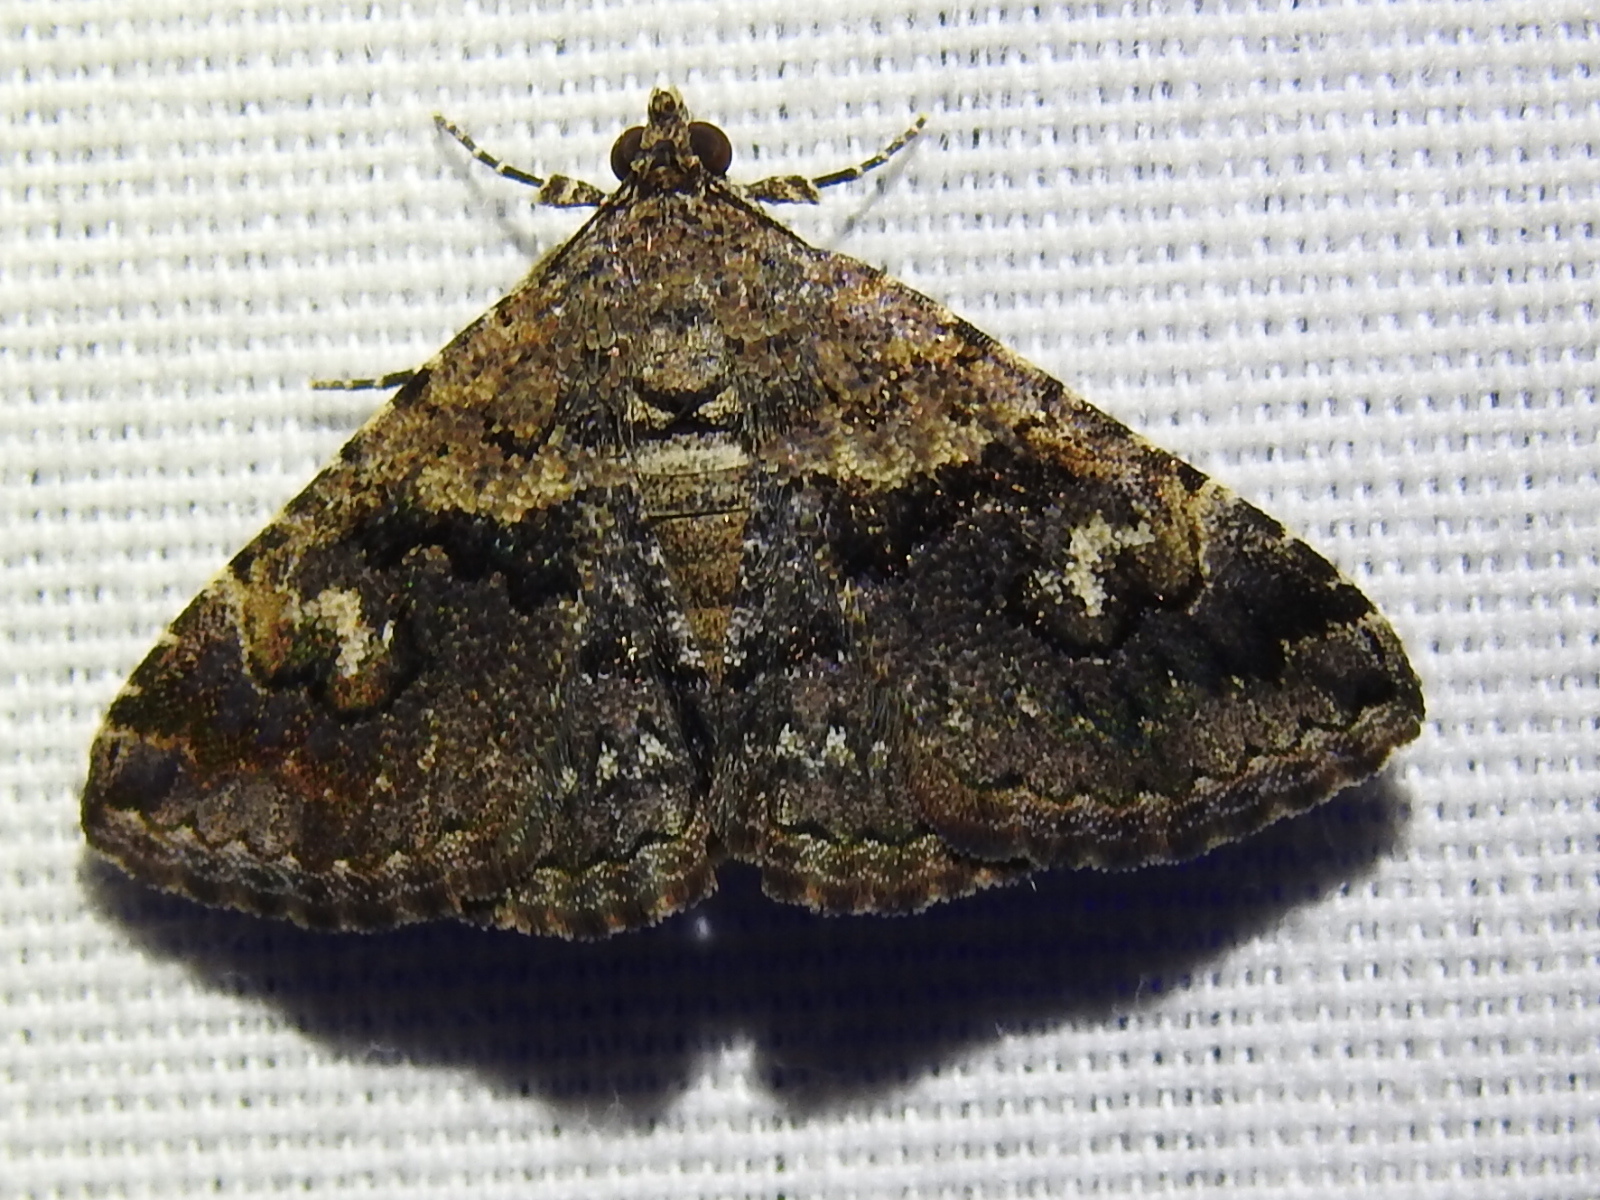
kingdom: Animalia
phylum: Arthropoda
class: Insecta
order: Lepidoptera
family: Erebidae
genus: Toxonprucha
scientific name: Toxonprucha excavata
